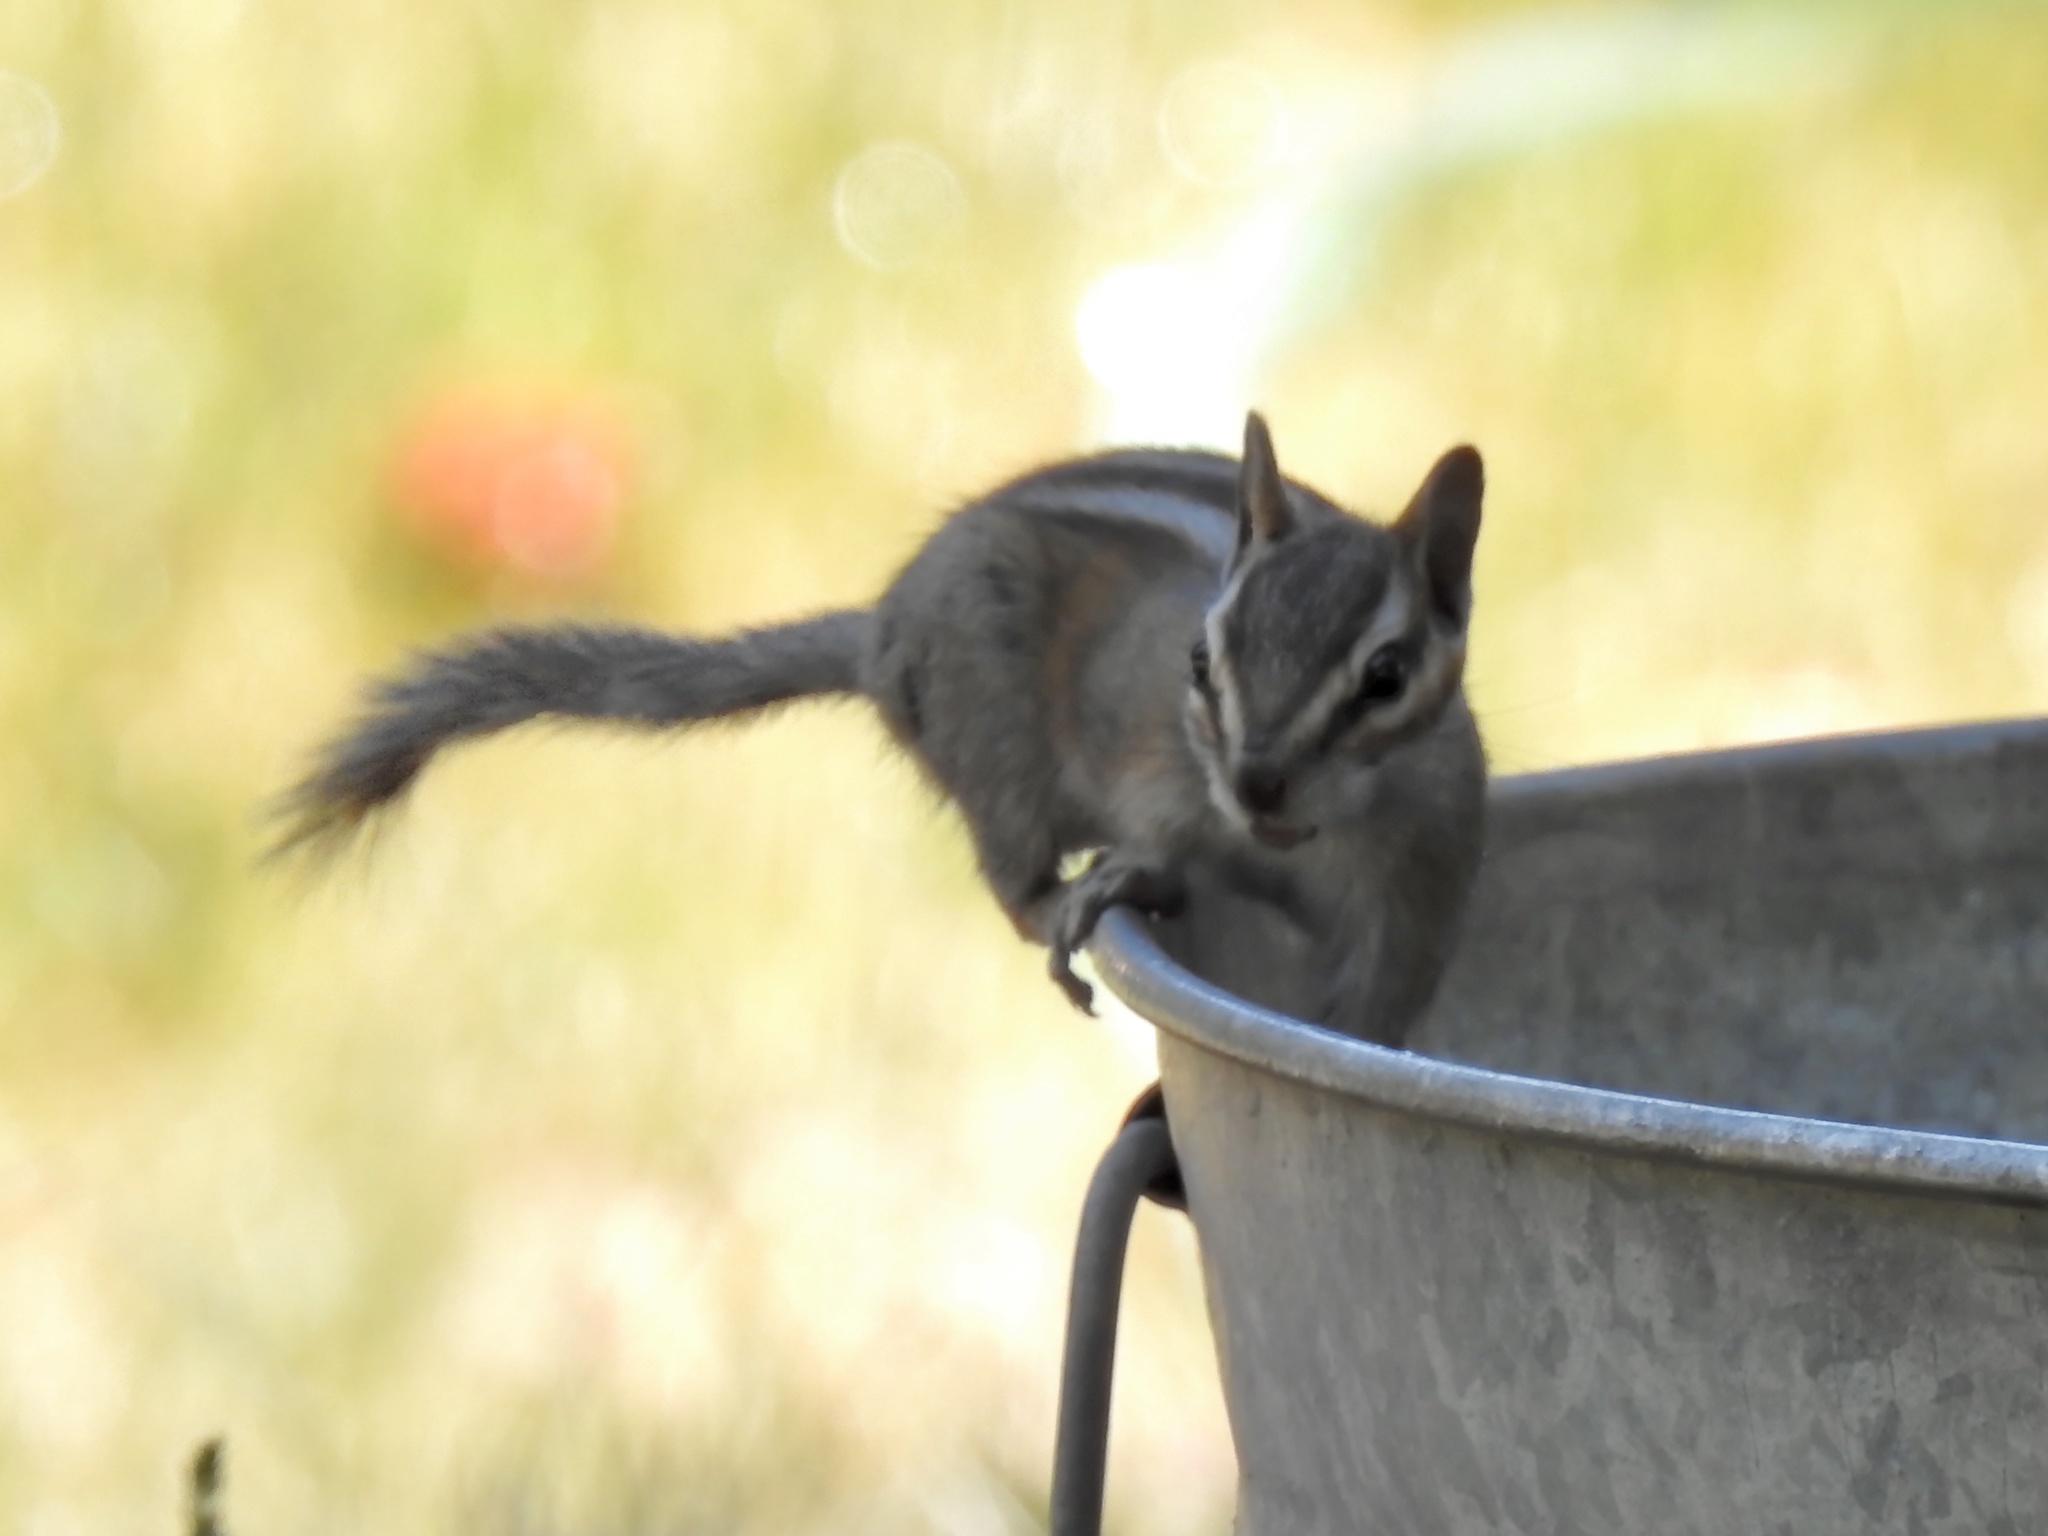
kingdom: Animalia
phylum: Chordata
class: Mammalia
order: Rodentia
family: Sciuridae
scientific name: Sciuridae
